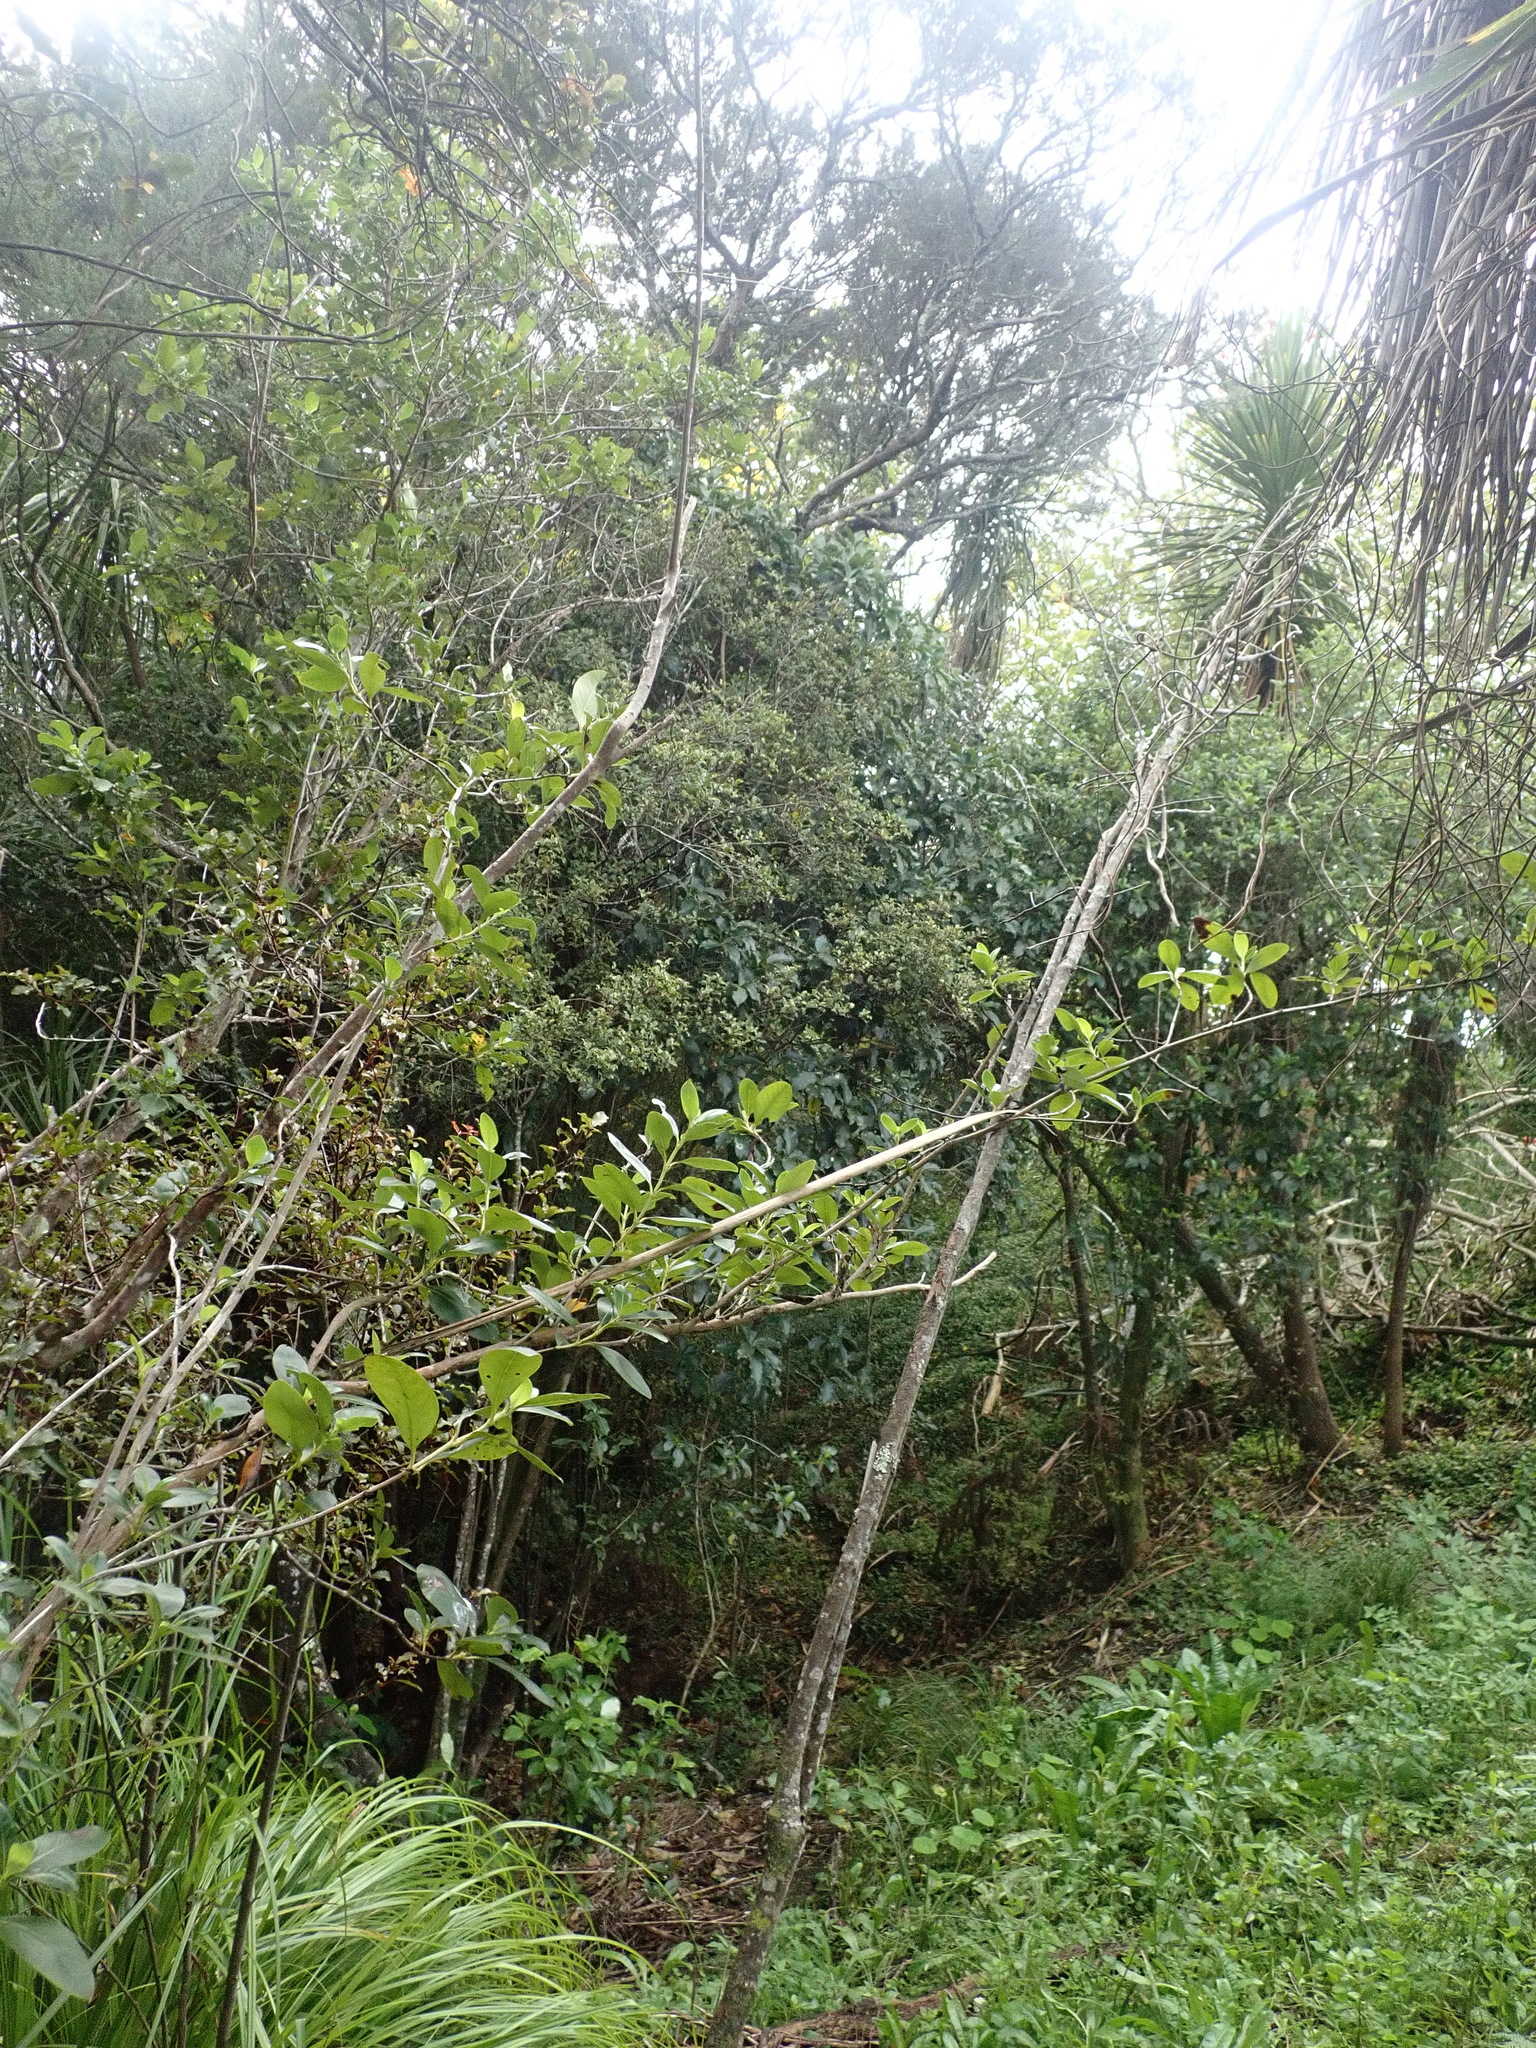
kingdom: Plantae
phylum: Tracheophyta
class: Magnoliopsida
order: Gentianales
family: Rubiaceae
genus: Coprosma
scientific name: Coprosma robusta
